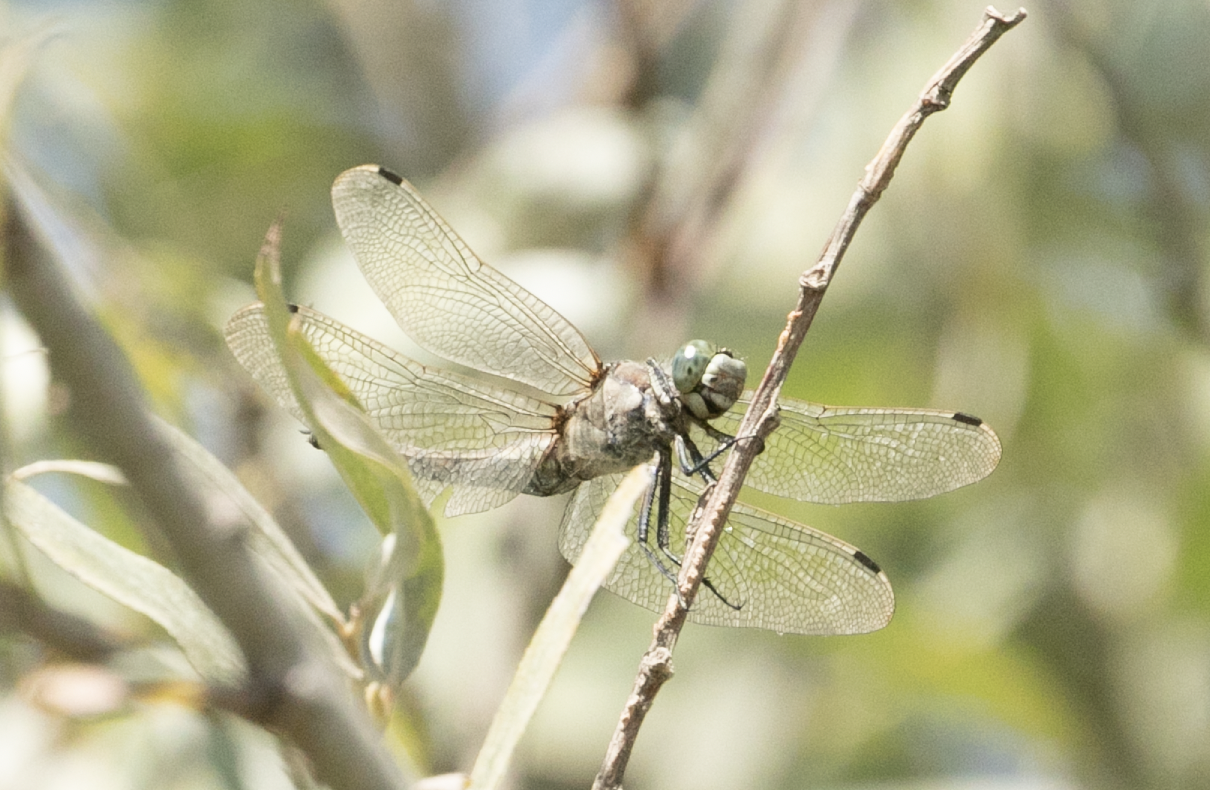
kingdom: Animalia
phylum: Arthropoda
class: Insecta
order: Odonata
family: Libellulidae
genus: Orthetrum
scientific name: Orthetrum cancellatum
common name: Black-tailed skimmer
